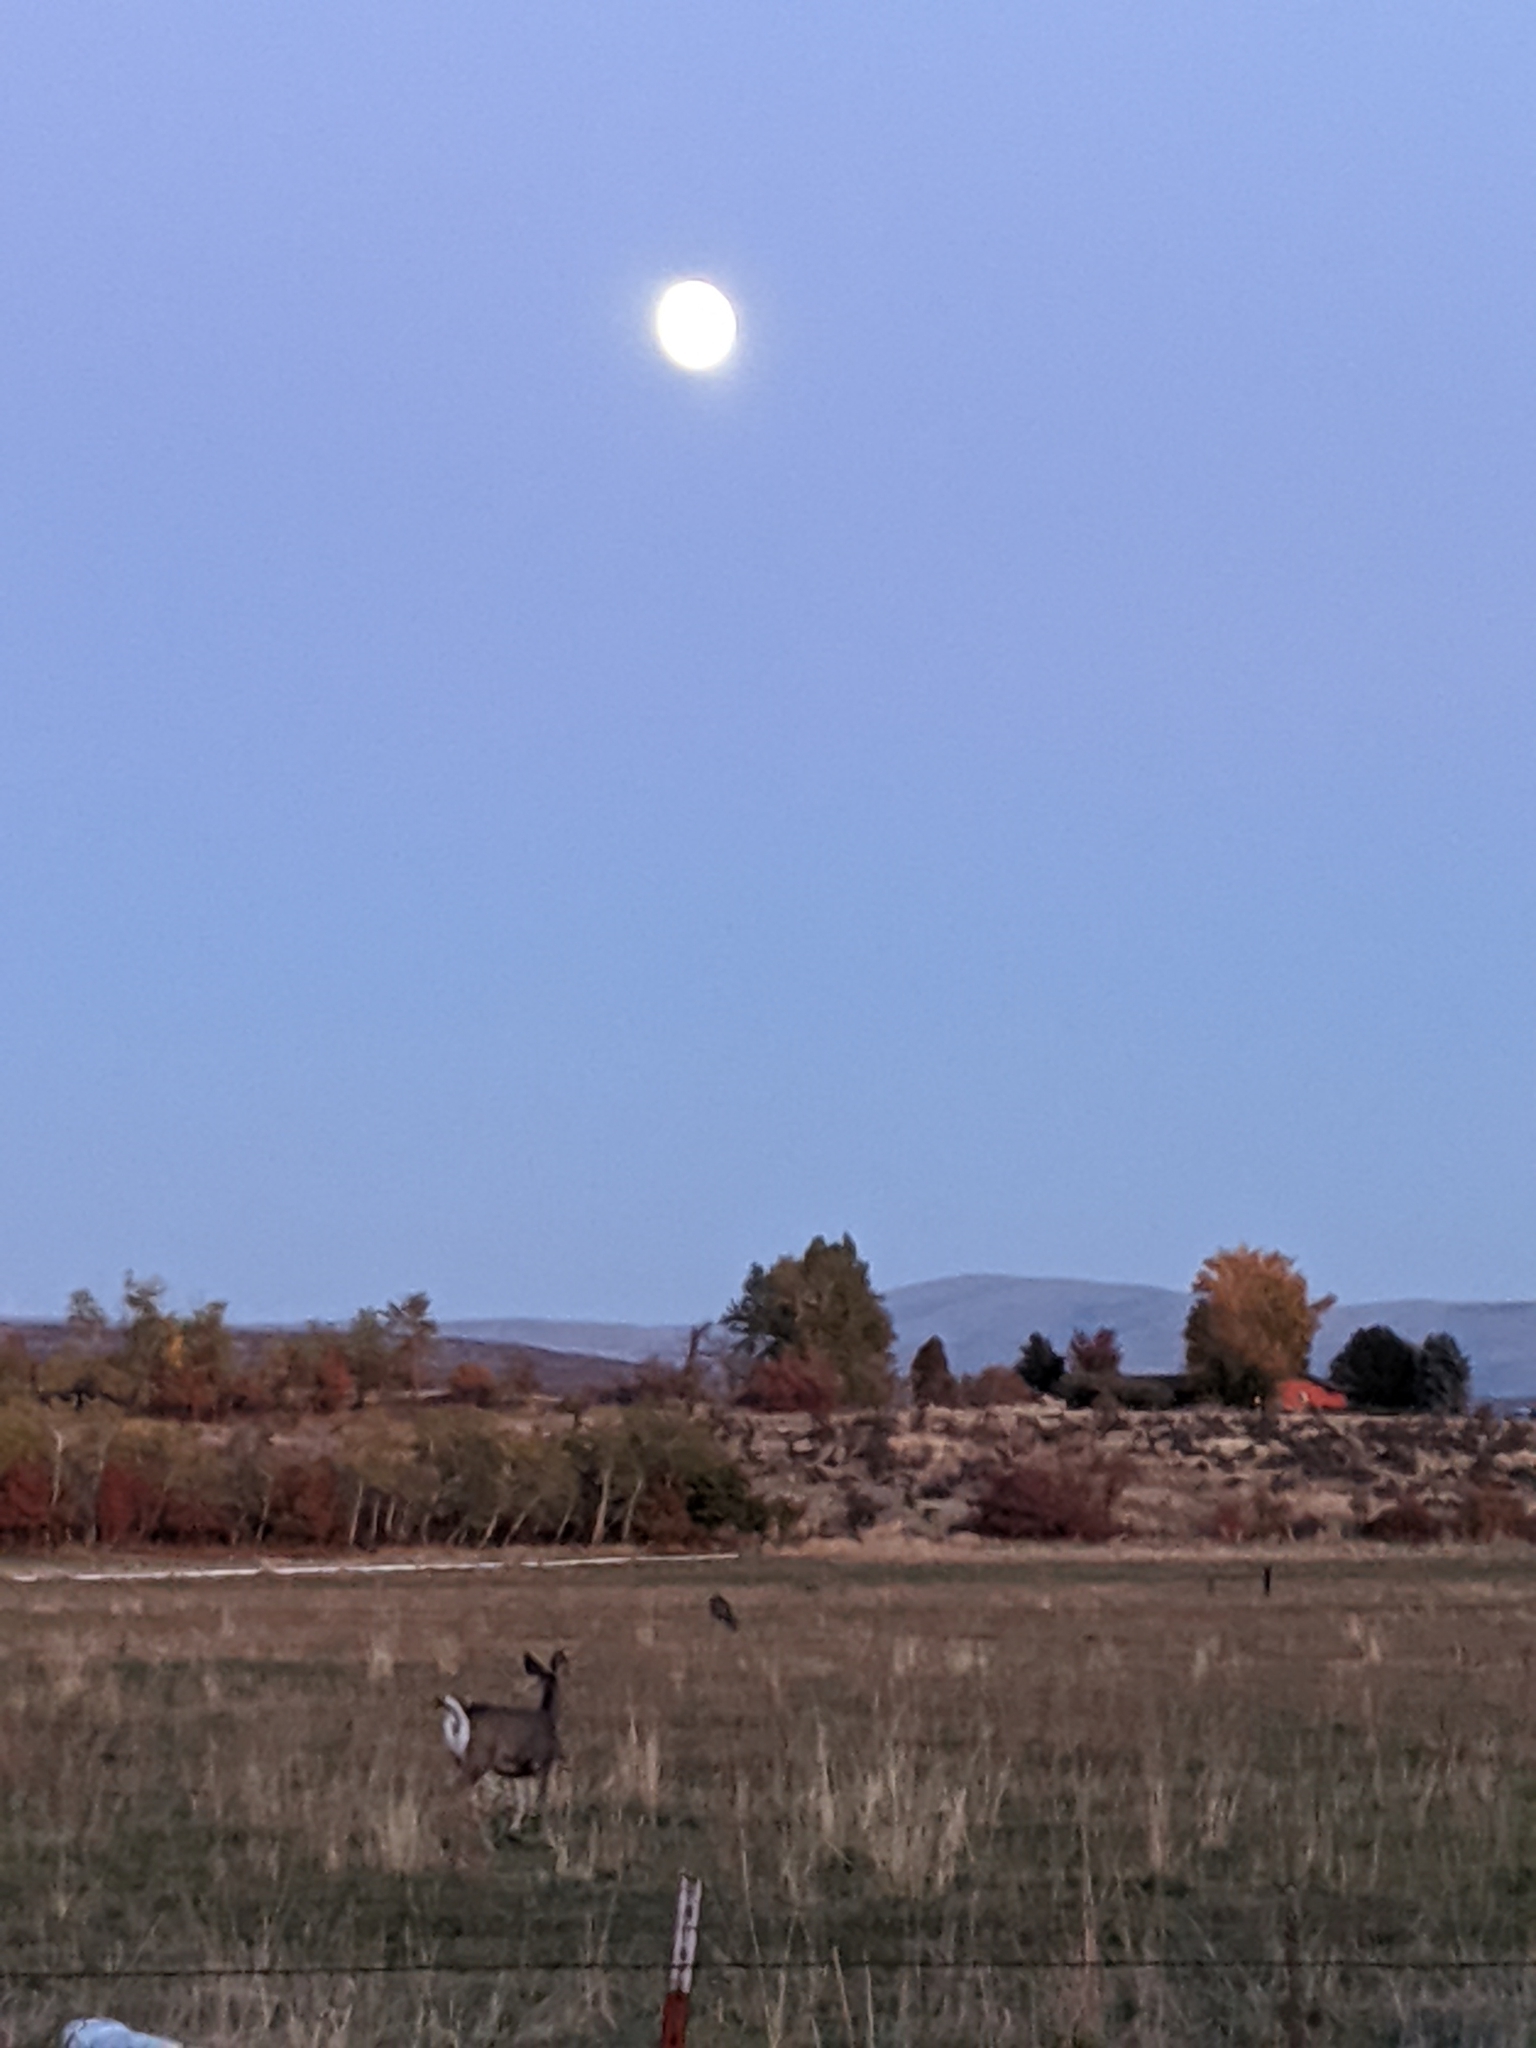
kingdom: Animalia
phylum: Chordata
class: Mammalia
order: Artiodactyla
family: Cervidae
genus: Odocoileus
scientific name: Odocoileus hemionus
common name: Mule deer
